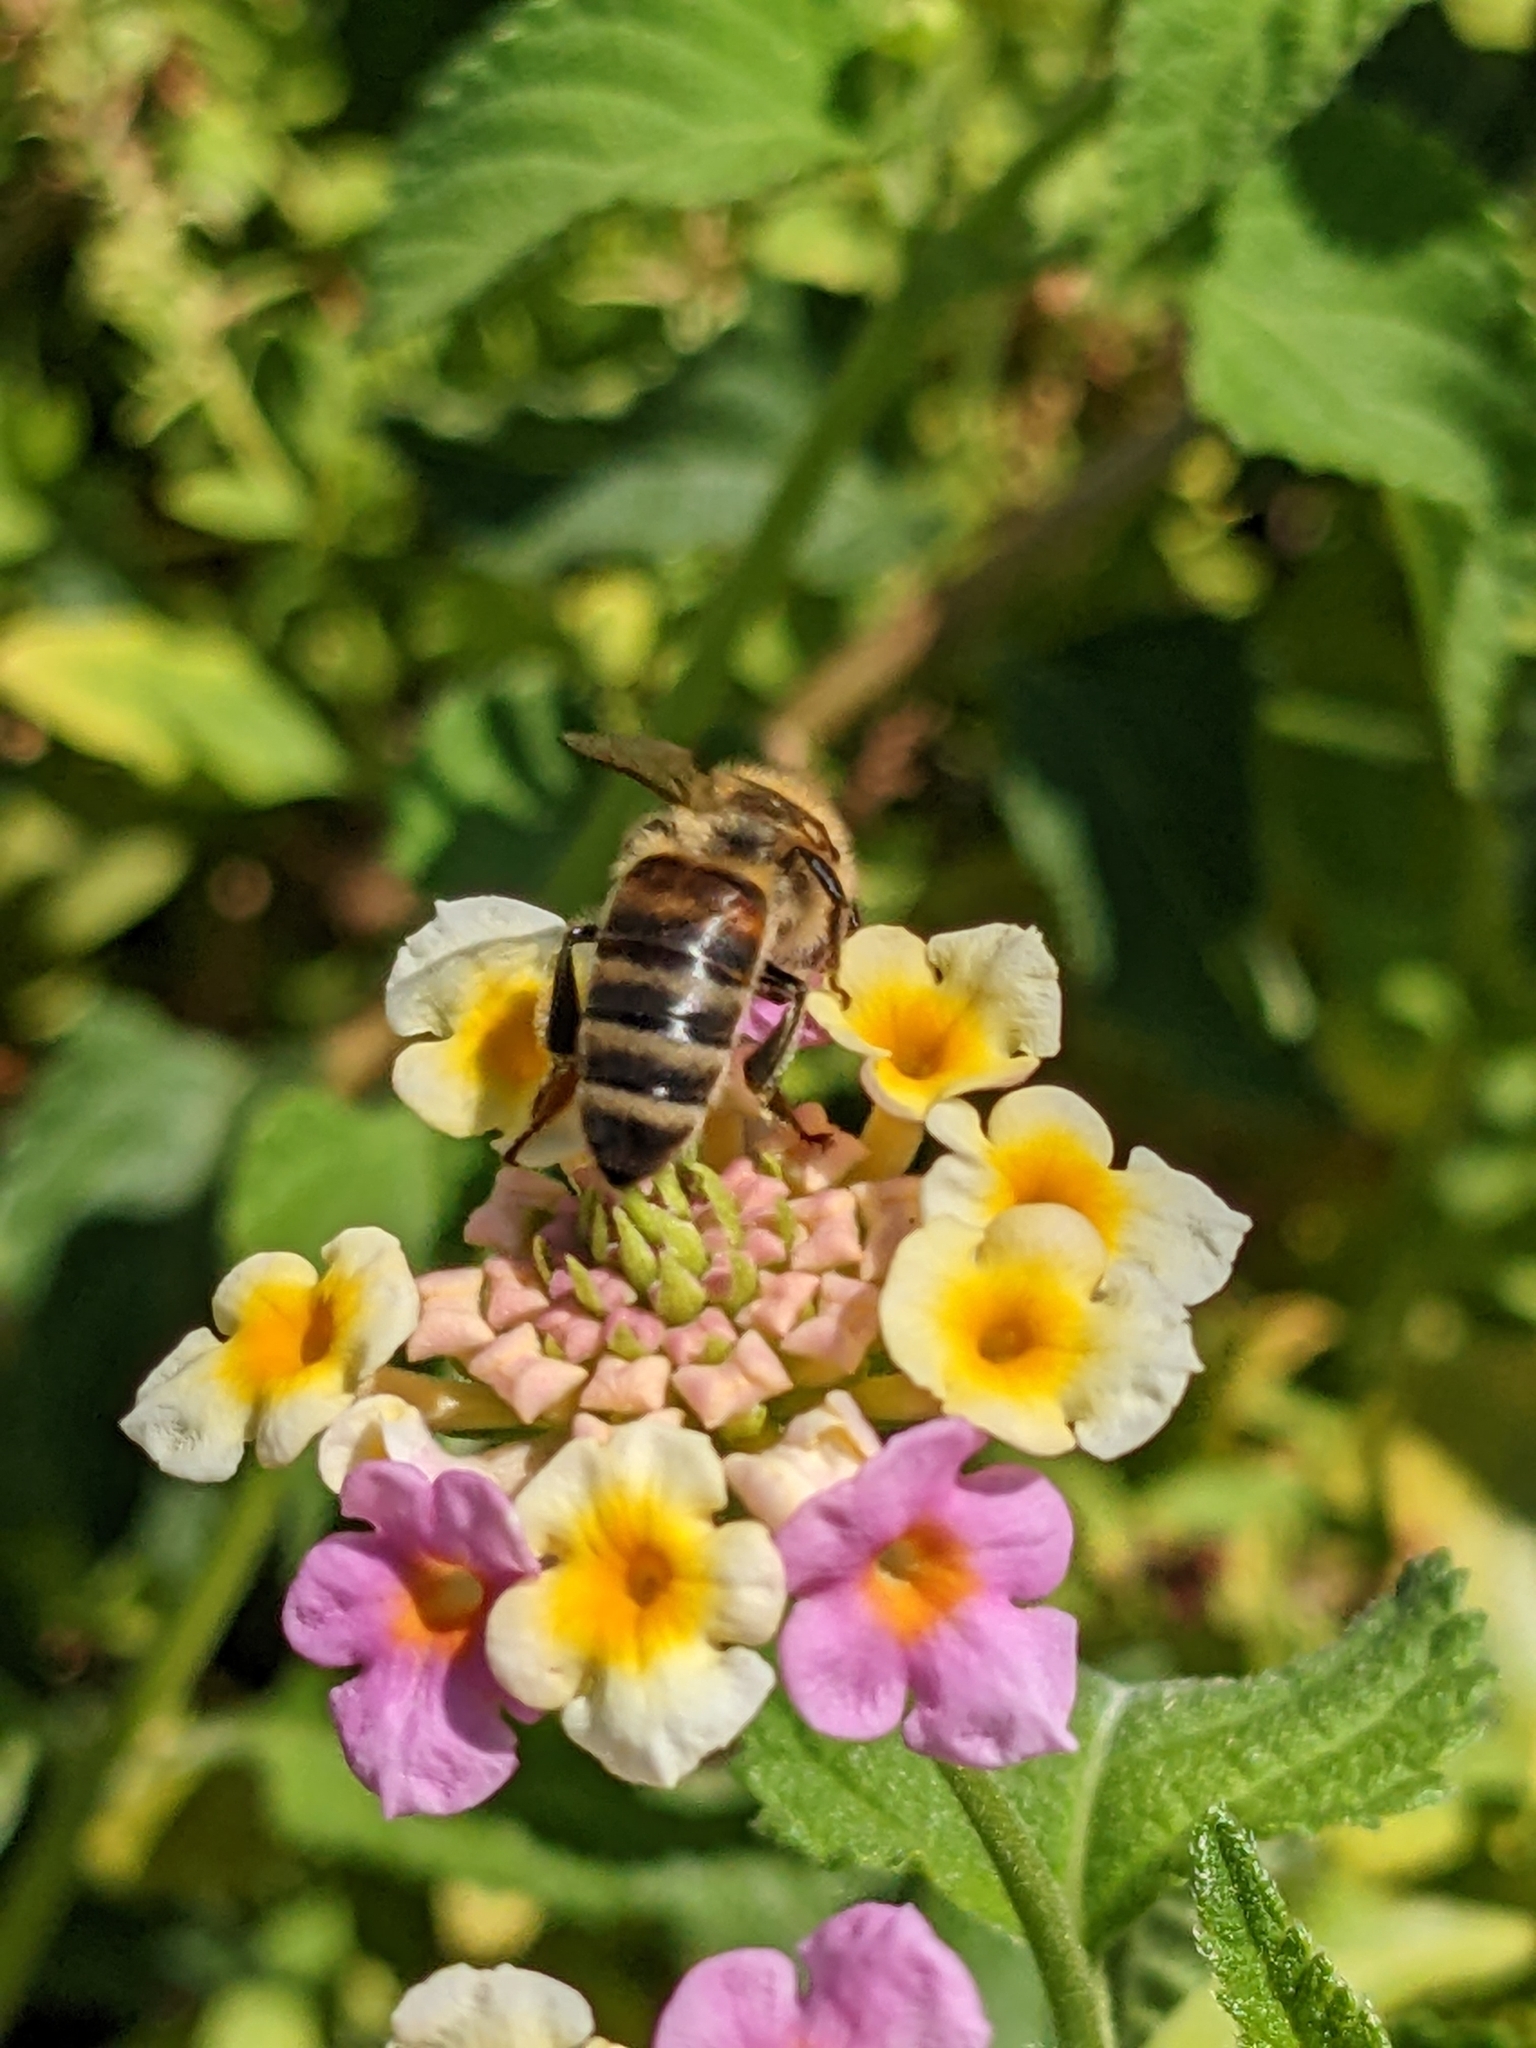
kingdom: Animalia
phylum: Arthropoda
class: Insecta
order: Hymenoptera
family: Apidae
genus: Apis
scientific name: Apis mellifera
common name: Honey bee
